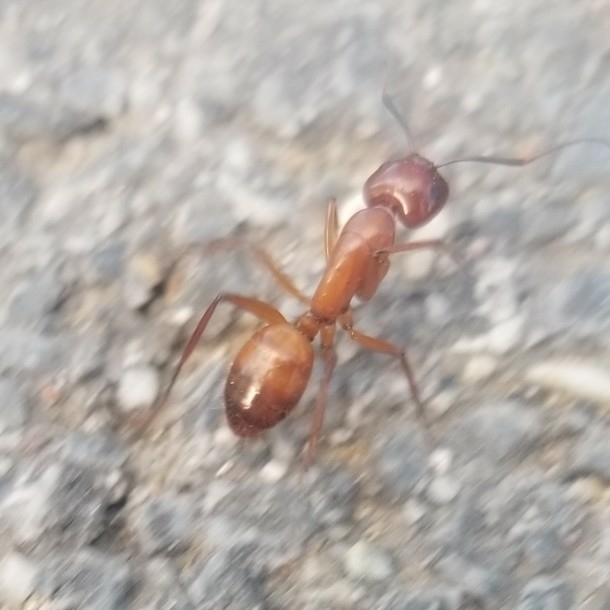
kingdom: Animalia
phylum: Arthropoda
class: Insecta
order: Hymenoptera
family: Formicidae
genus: Camponotus
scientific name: Camponotus castaneus
